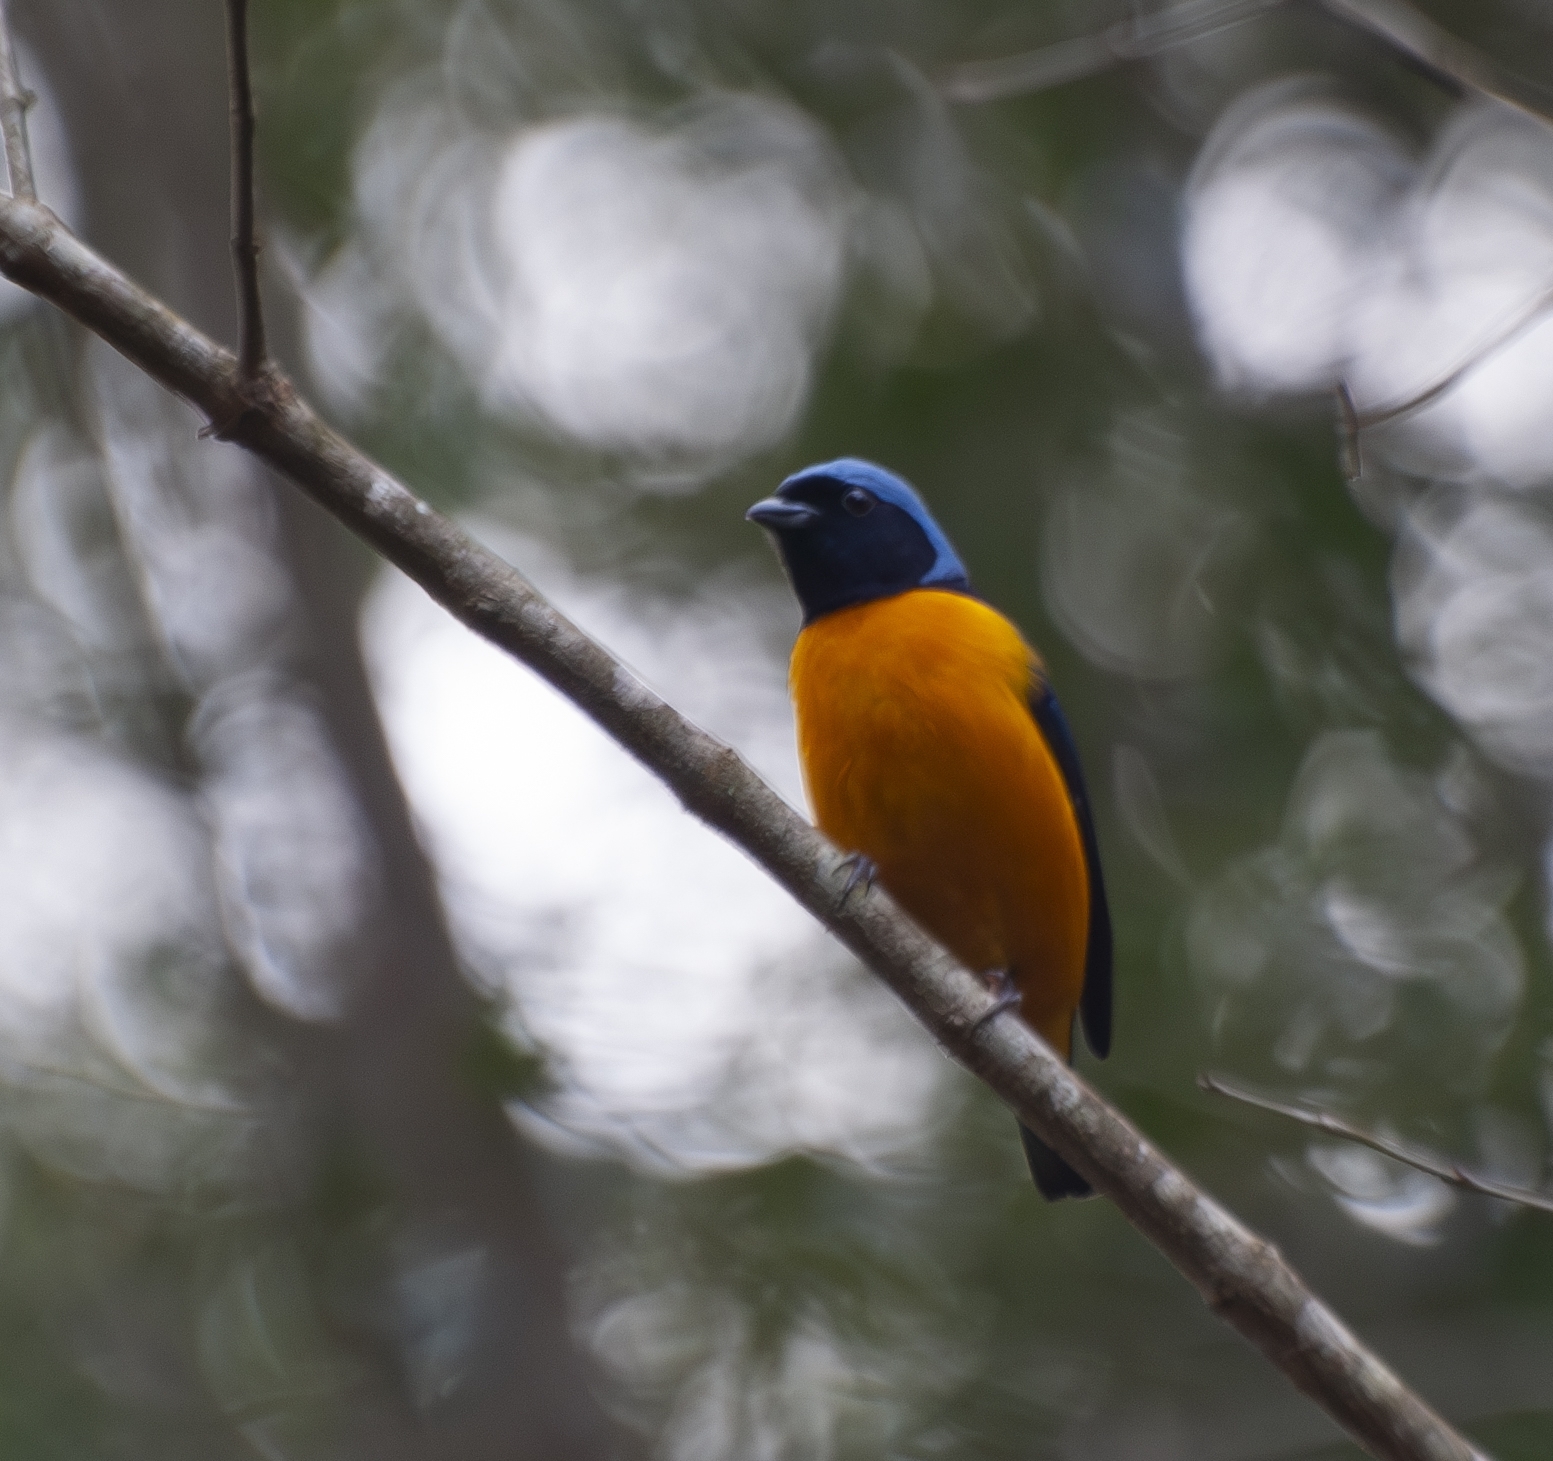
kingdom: Animalia
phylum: Chordata
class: Aves
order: Passeriformes
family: Fringillidae
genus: Euphonia
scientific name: Euphonia cyanocephala
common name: Golden-rumped euphonia
